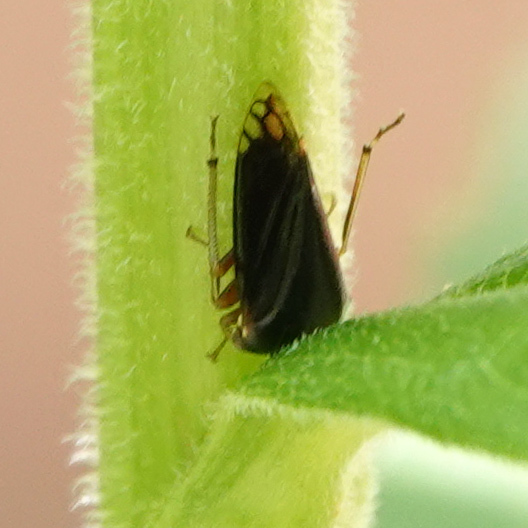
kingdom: Animalia
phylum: Arthropoda
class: Insecta
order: Hemiptera
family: Membracidae
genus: Acutalis
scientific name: Acutalis tartarea
